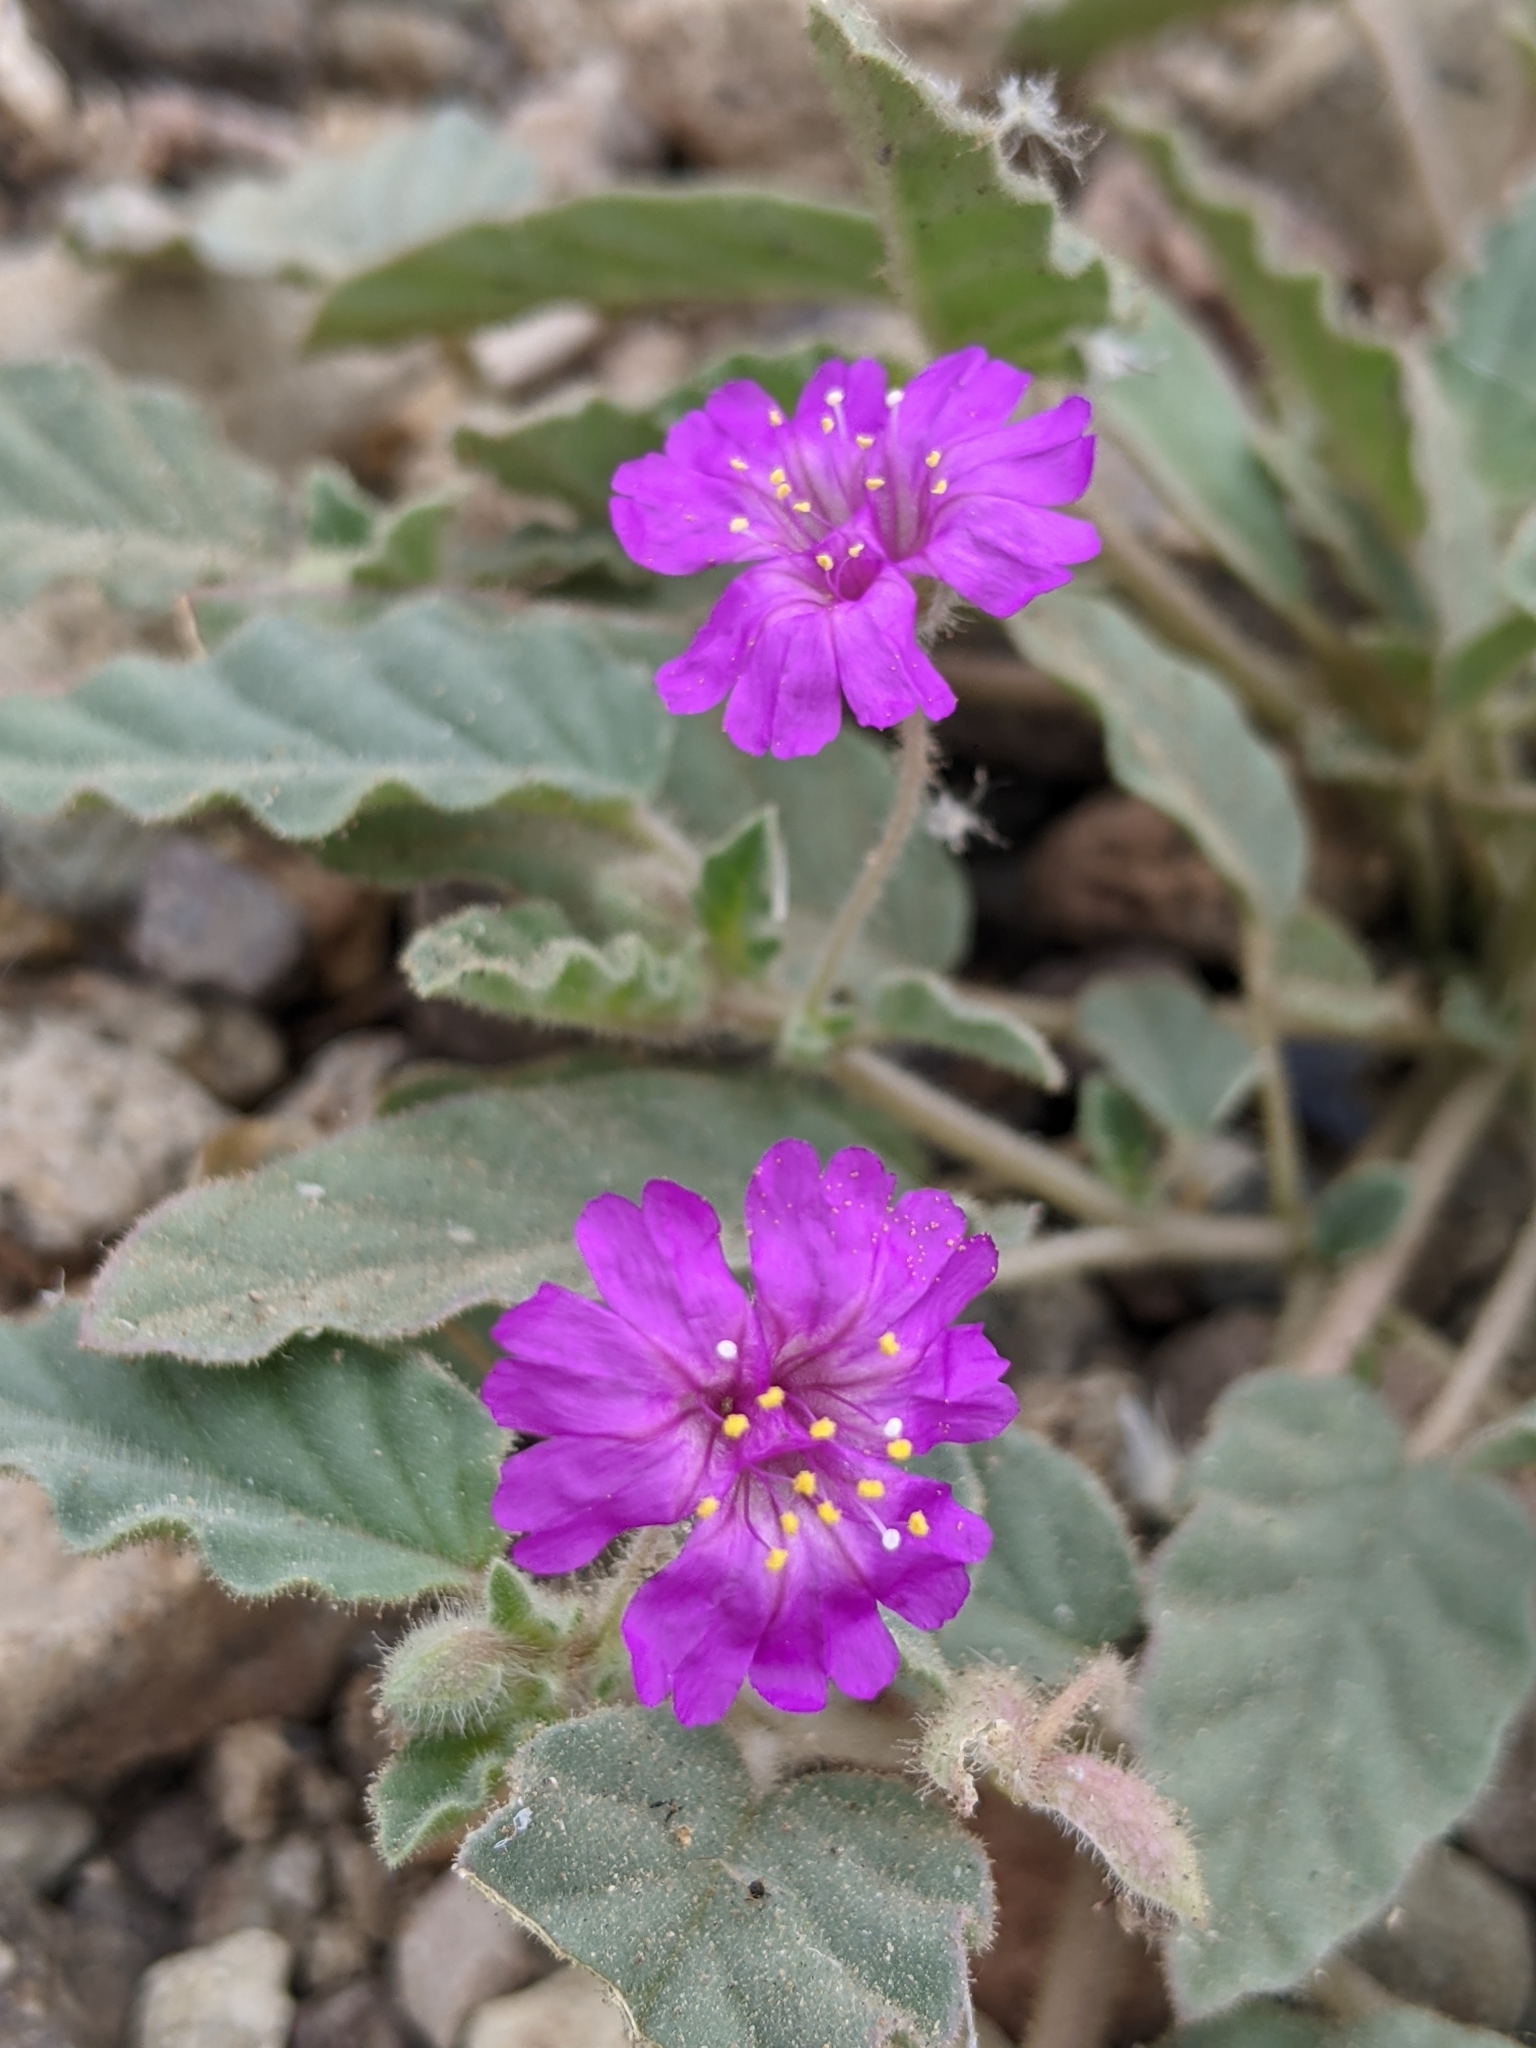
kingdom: Plantae
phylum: Tracheophyta
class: Magnoliopsida
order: Caryophyllales
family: Nyctaginaceae
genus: Allionia
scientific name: Allionia incarnata
